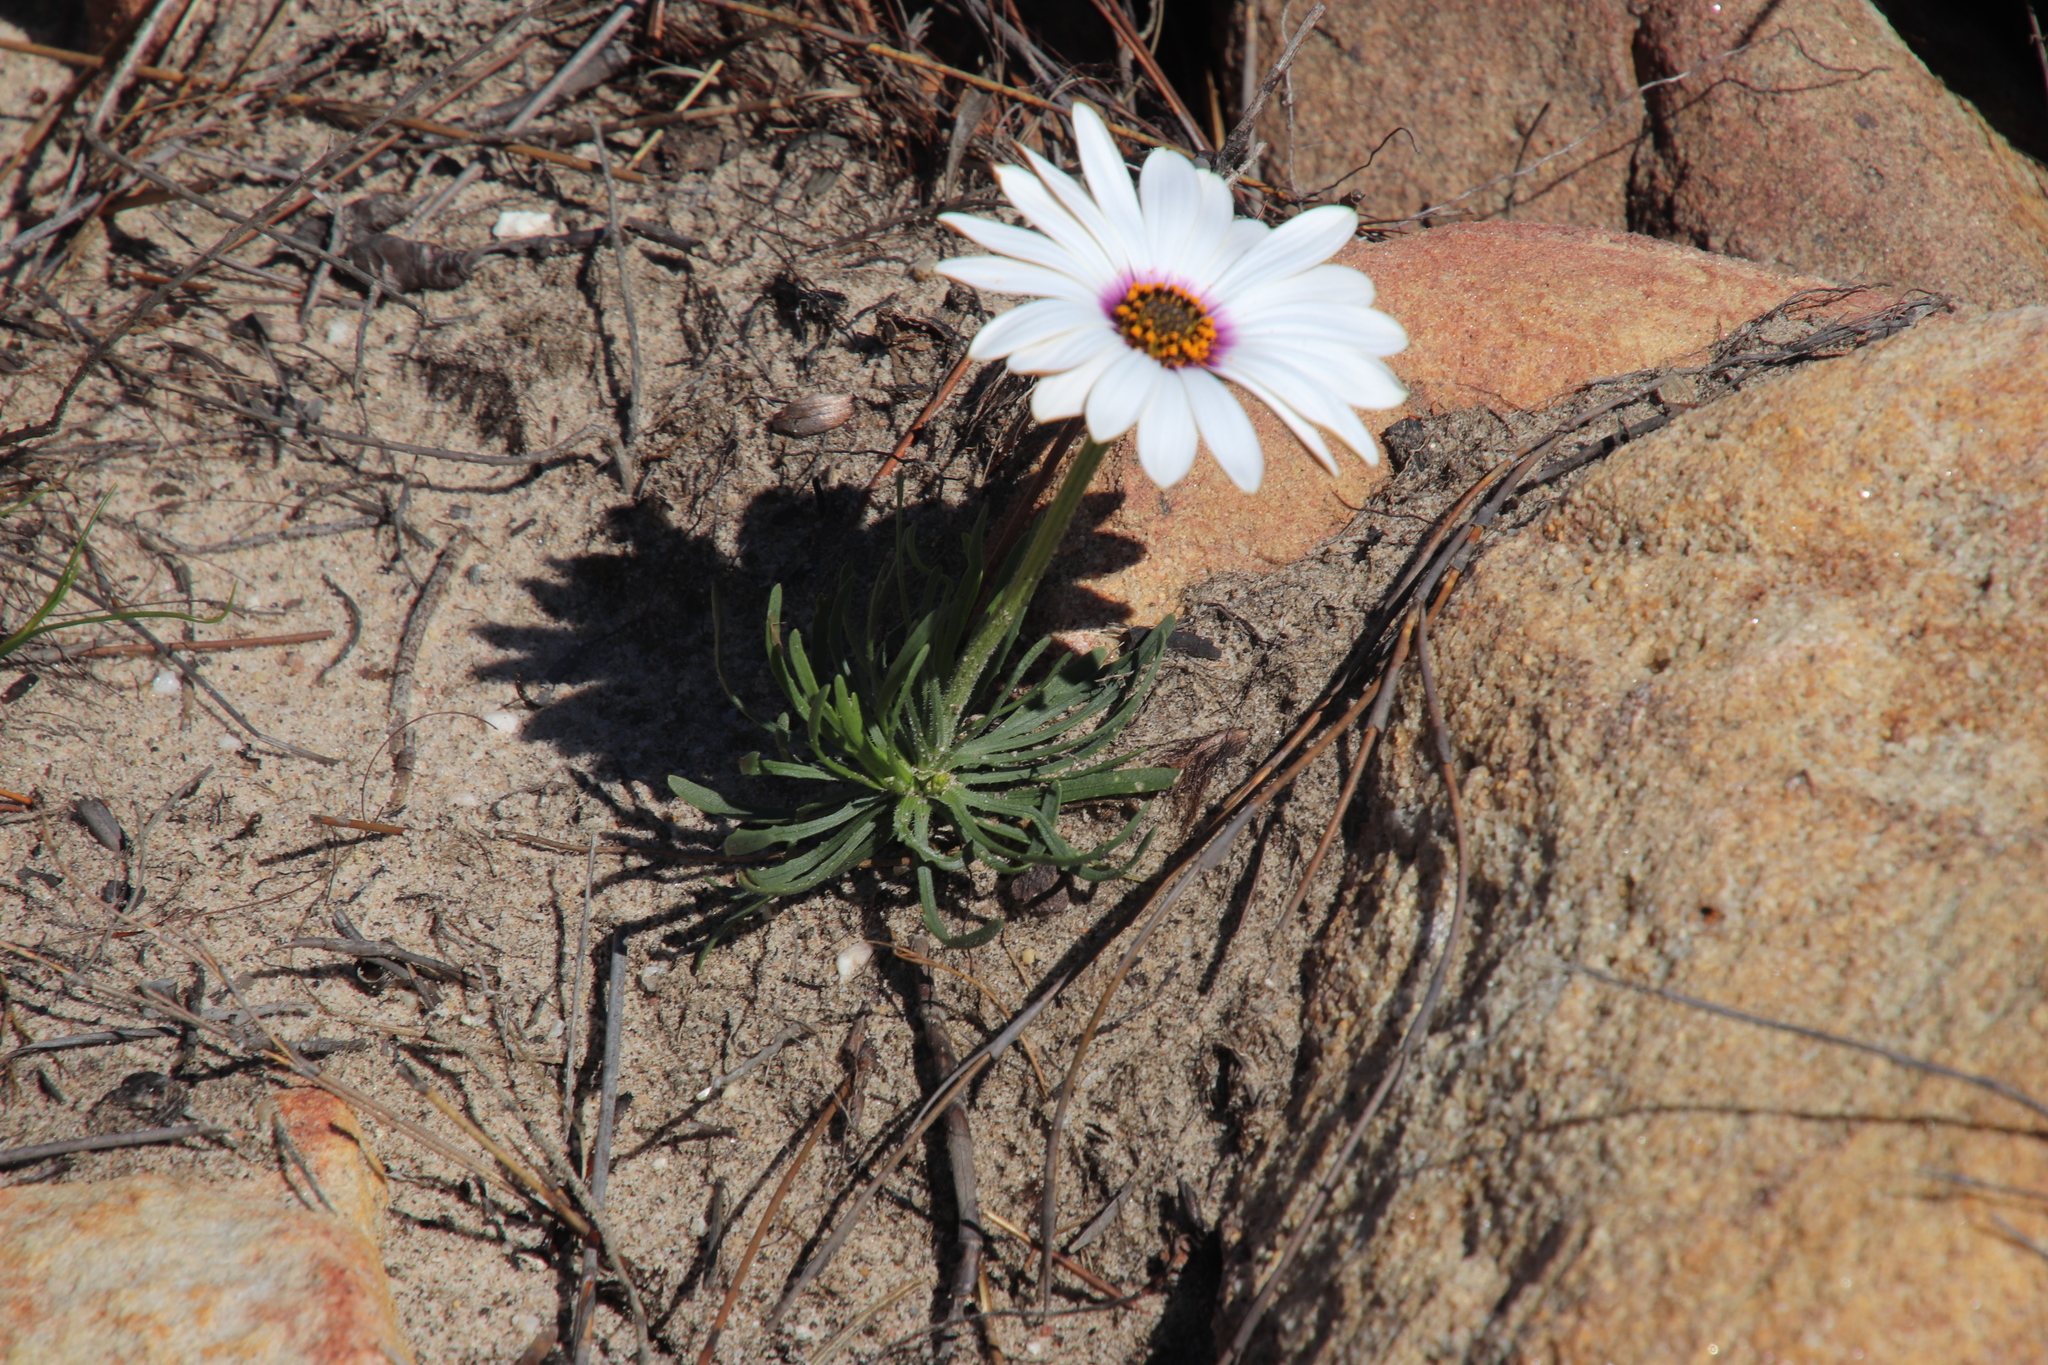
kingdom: Plantae
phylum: Tracheophyta
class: Magnoliopsida
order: Asterales
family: Asteraceae
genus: Dimorphotheca
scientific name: Dimorphotheca nudicaulis
